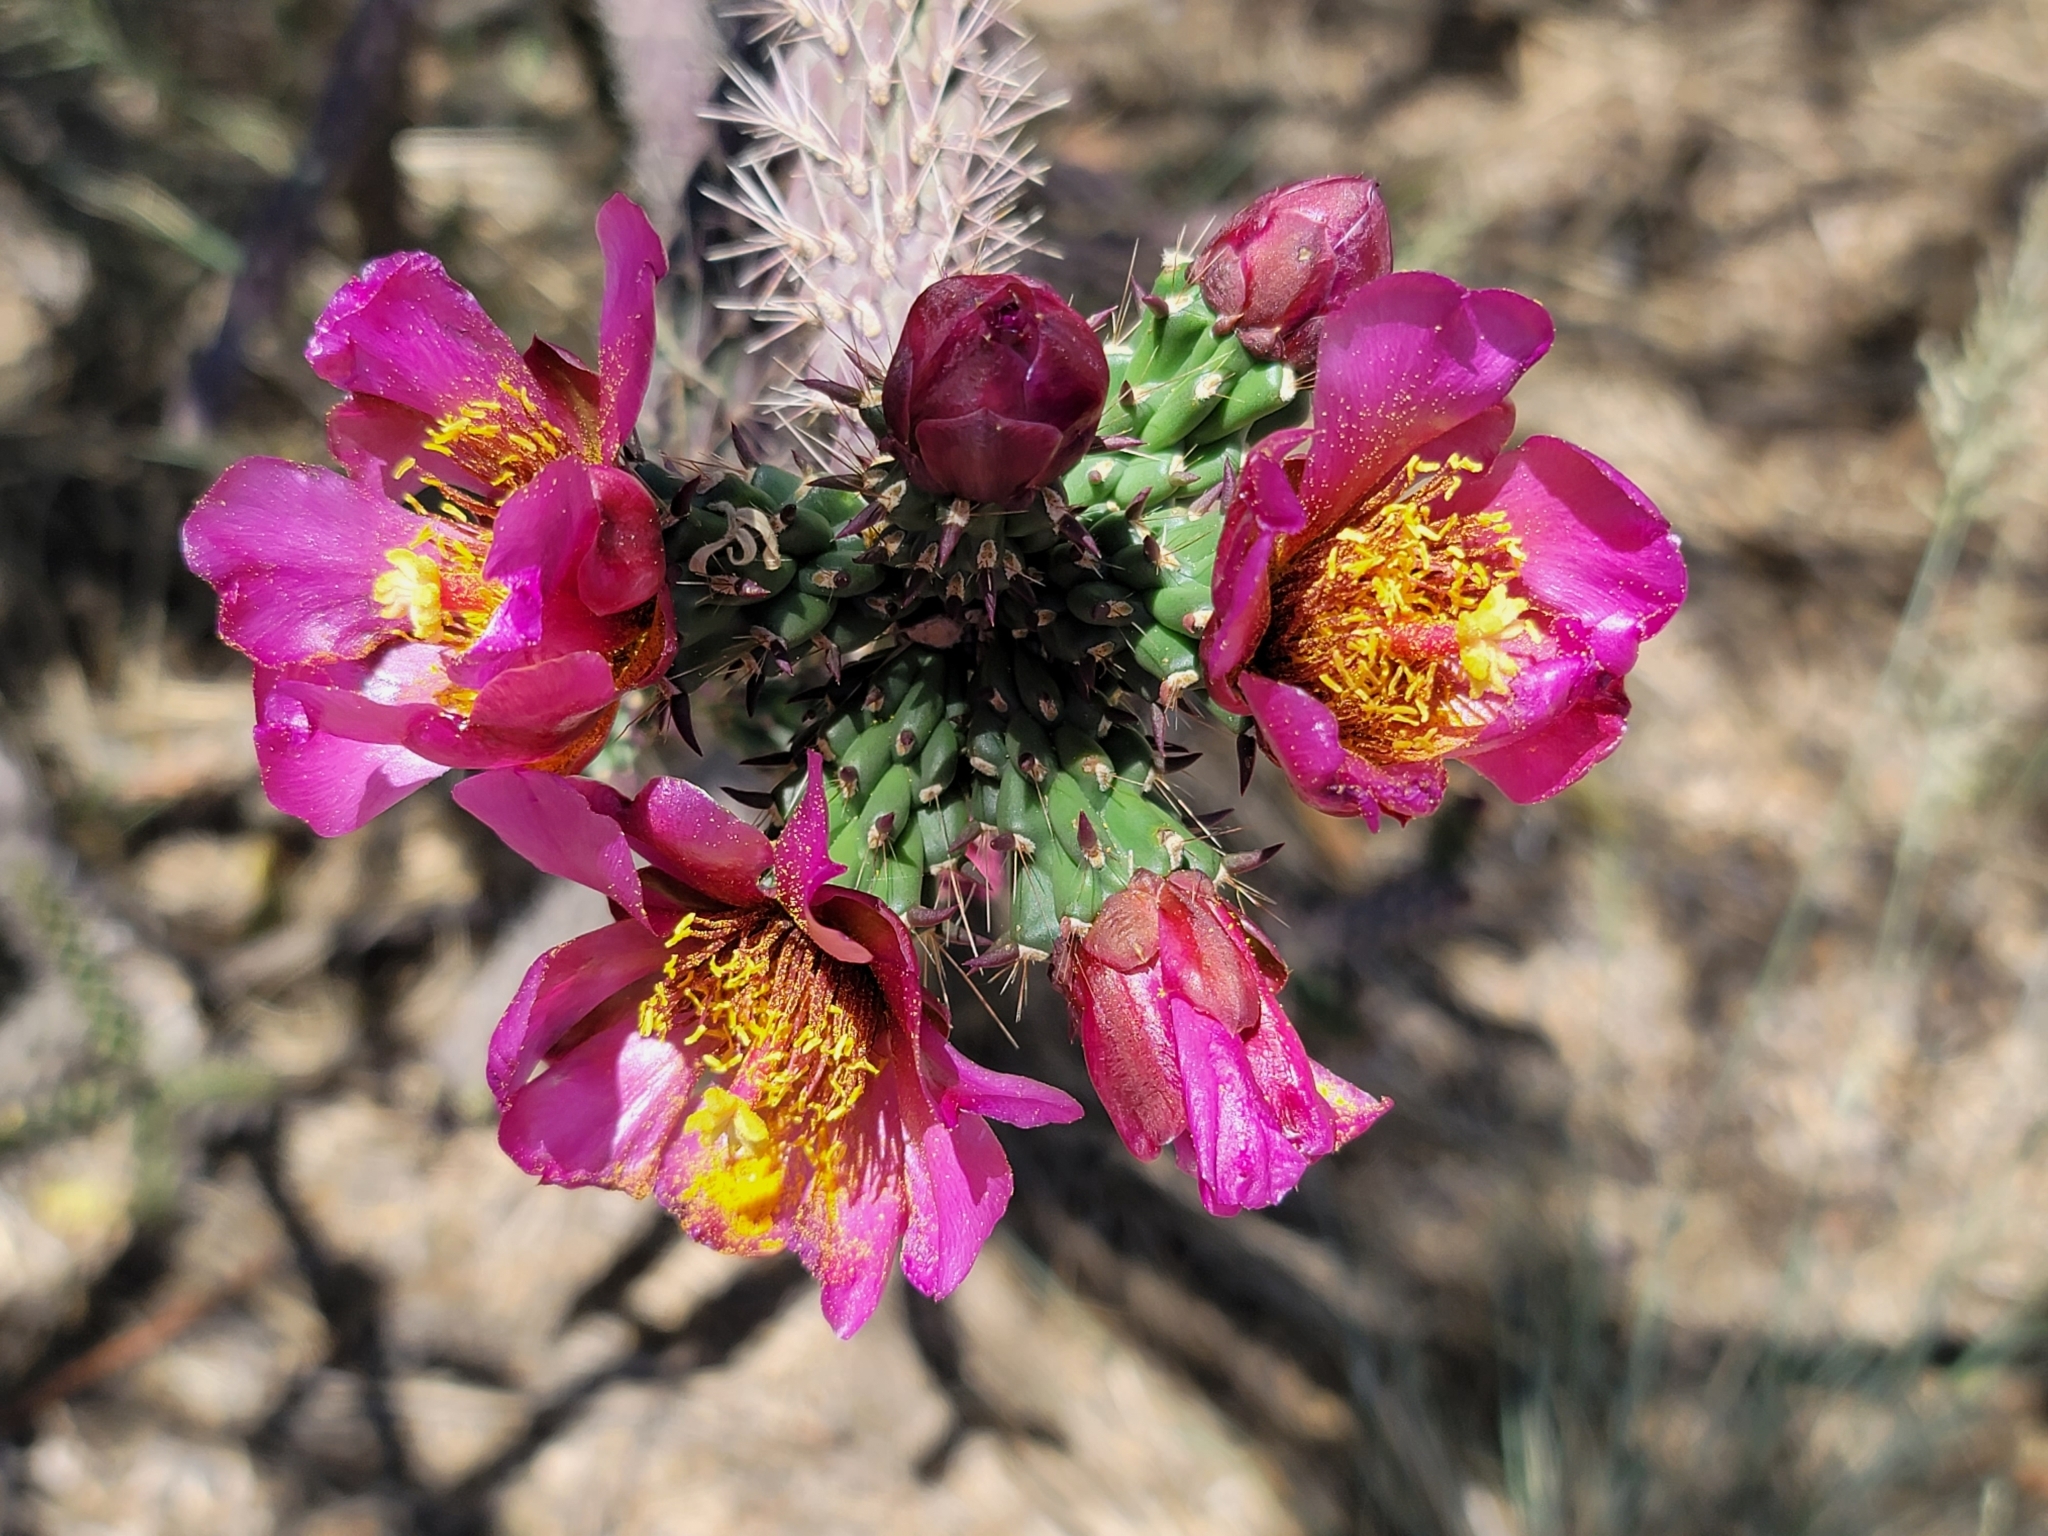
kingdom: Plantae
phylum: Tracheophyta
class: Magnoliopsida
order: Caryophyllales
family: Cactaceae
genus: Cylindropuntia
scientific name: Cylindropuntia imbricata
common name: Candelabrum cactus
